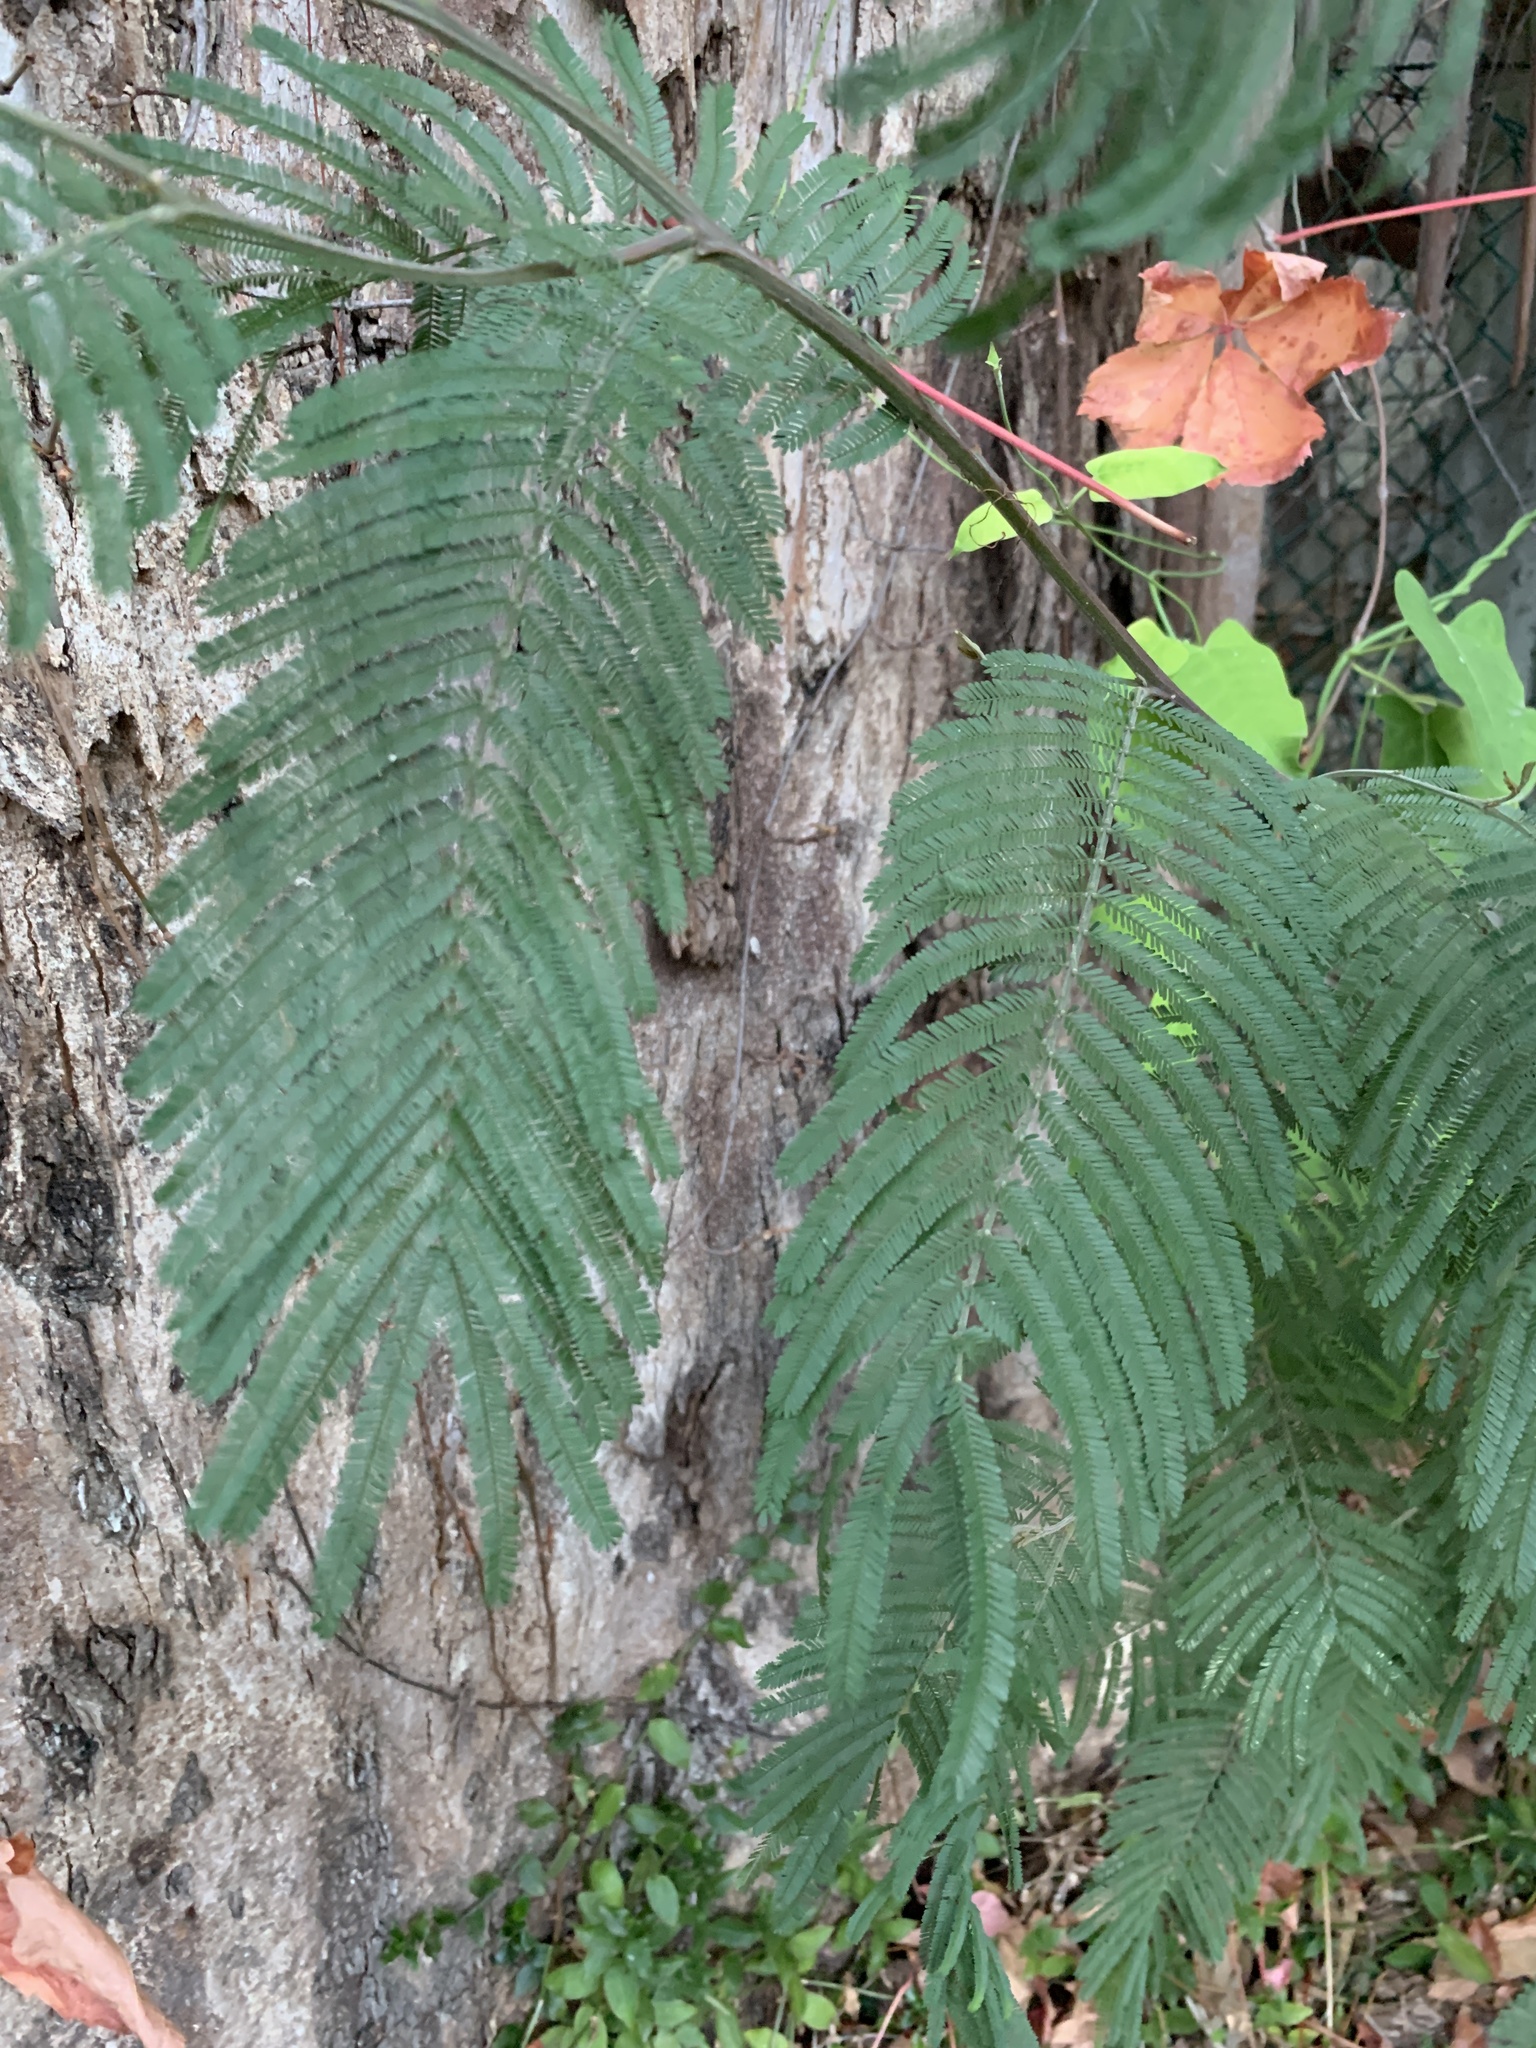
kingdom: Plantae
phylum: Tracheophyta
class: Magnoliopsida
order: Fabales
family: Fabaceae
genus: Acacia
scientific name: Acacia mearnsii
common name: Black wattle
